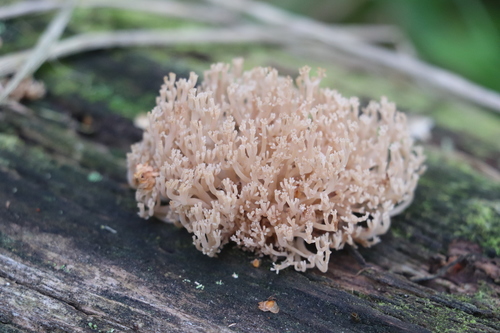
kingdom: Fungi
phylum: Basidiomycota
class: Agaricomycetes
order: Russulales
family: Auriscalpiaceae
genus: Artomyces
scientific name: Artomyces pyxidatus
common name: Crown-tipped coral fungus
